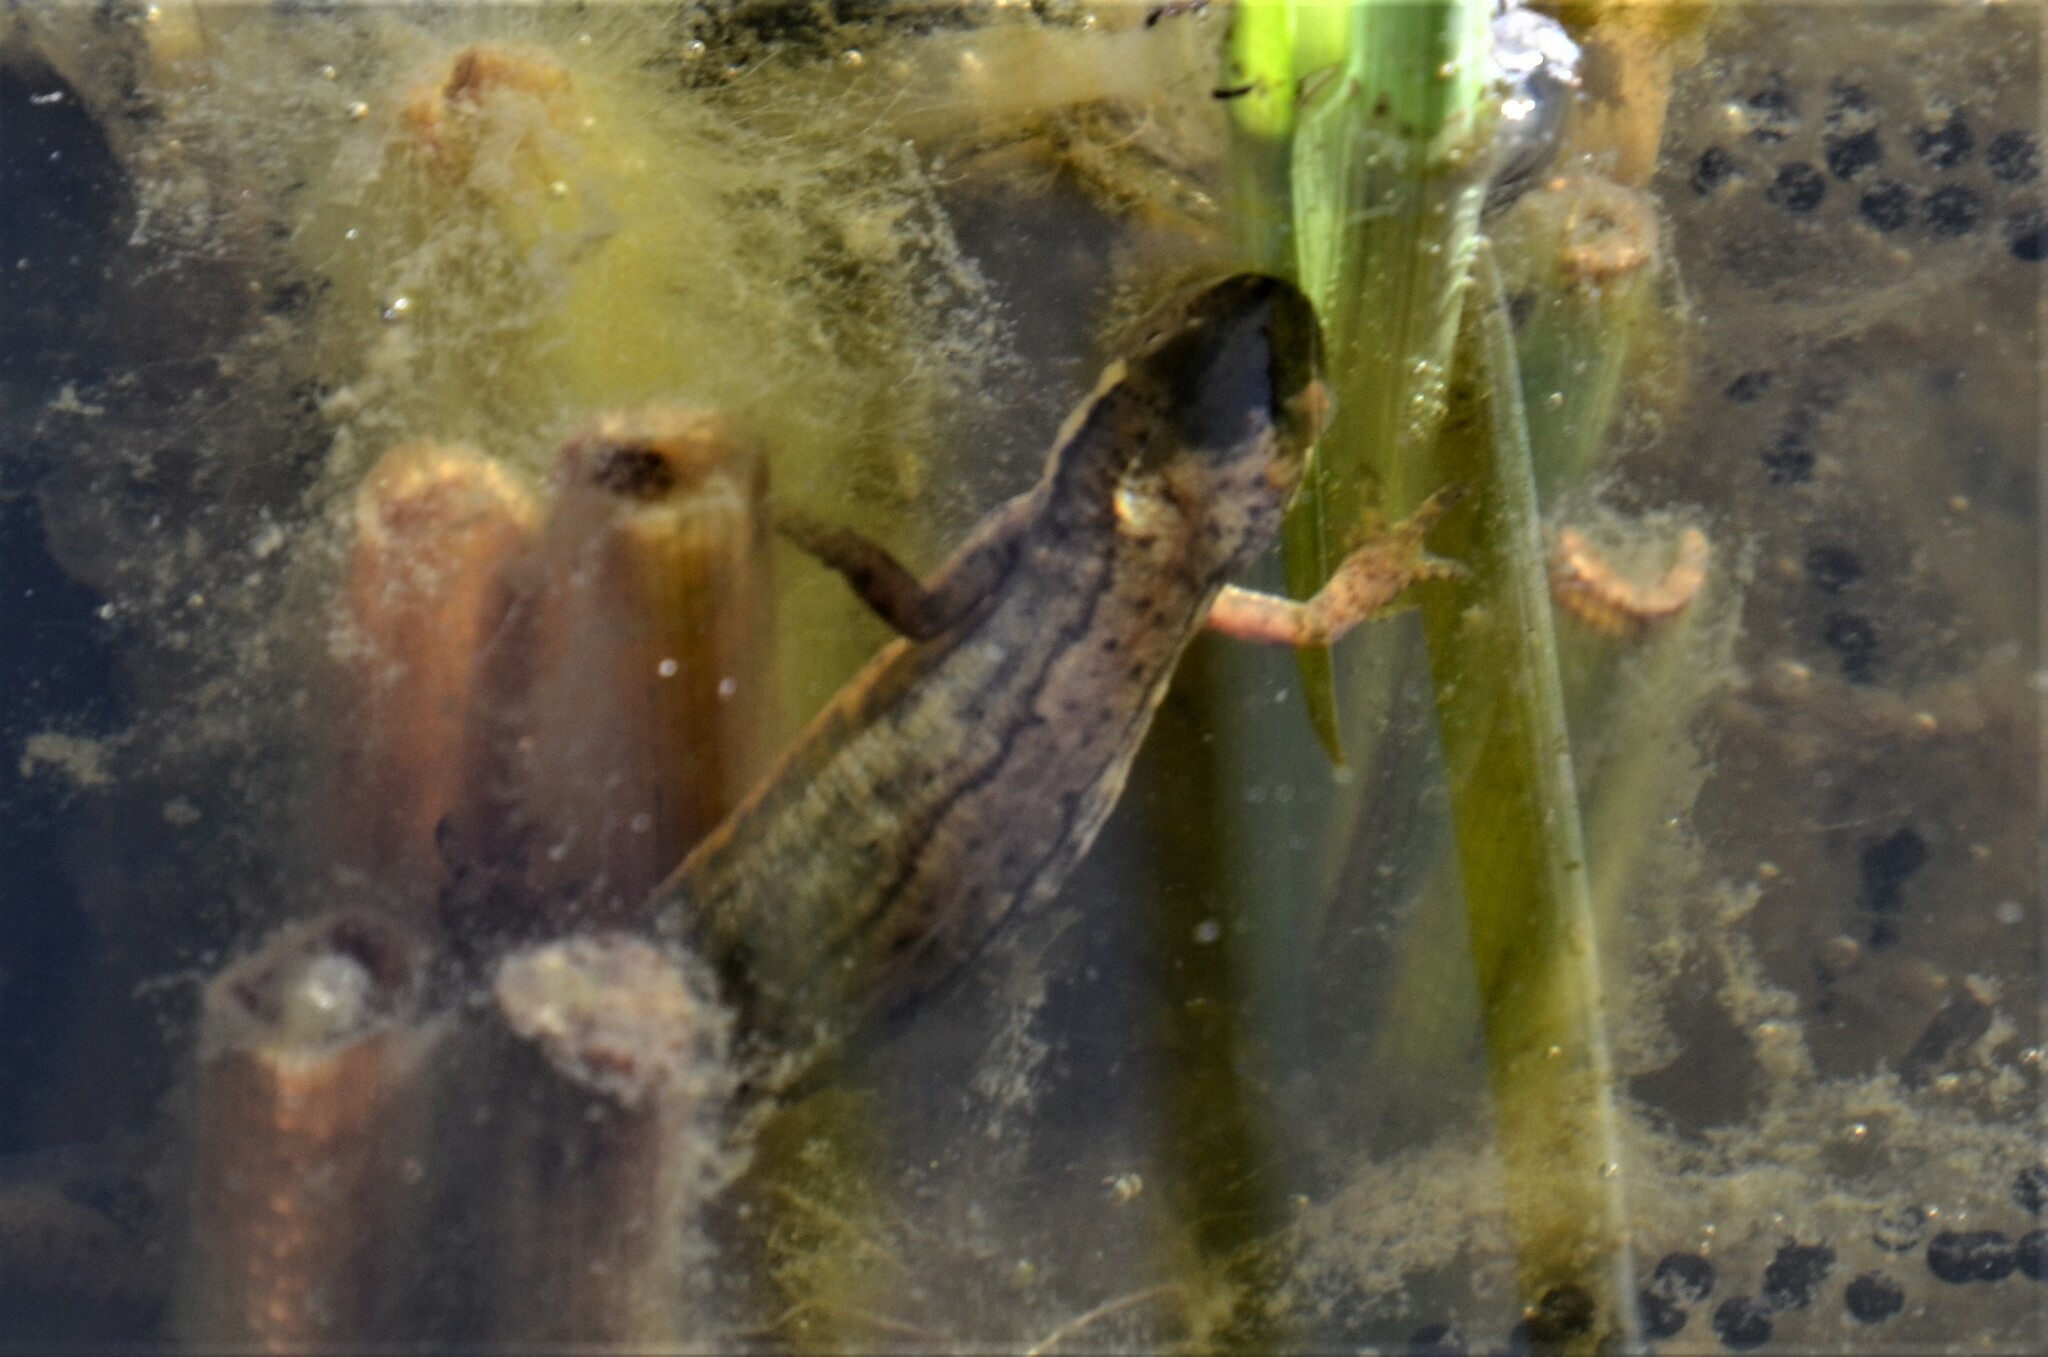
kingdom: Animalia
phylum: Chordata
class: Amphibia
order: Caudata
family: Salamandridae
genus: Lissotriton
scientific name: Lissotriton vulgaris
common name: Smooth newt
